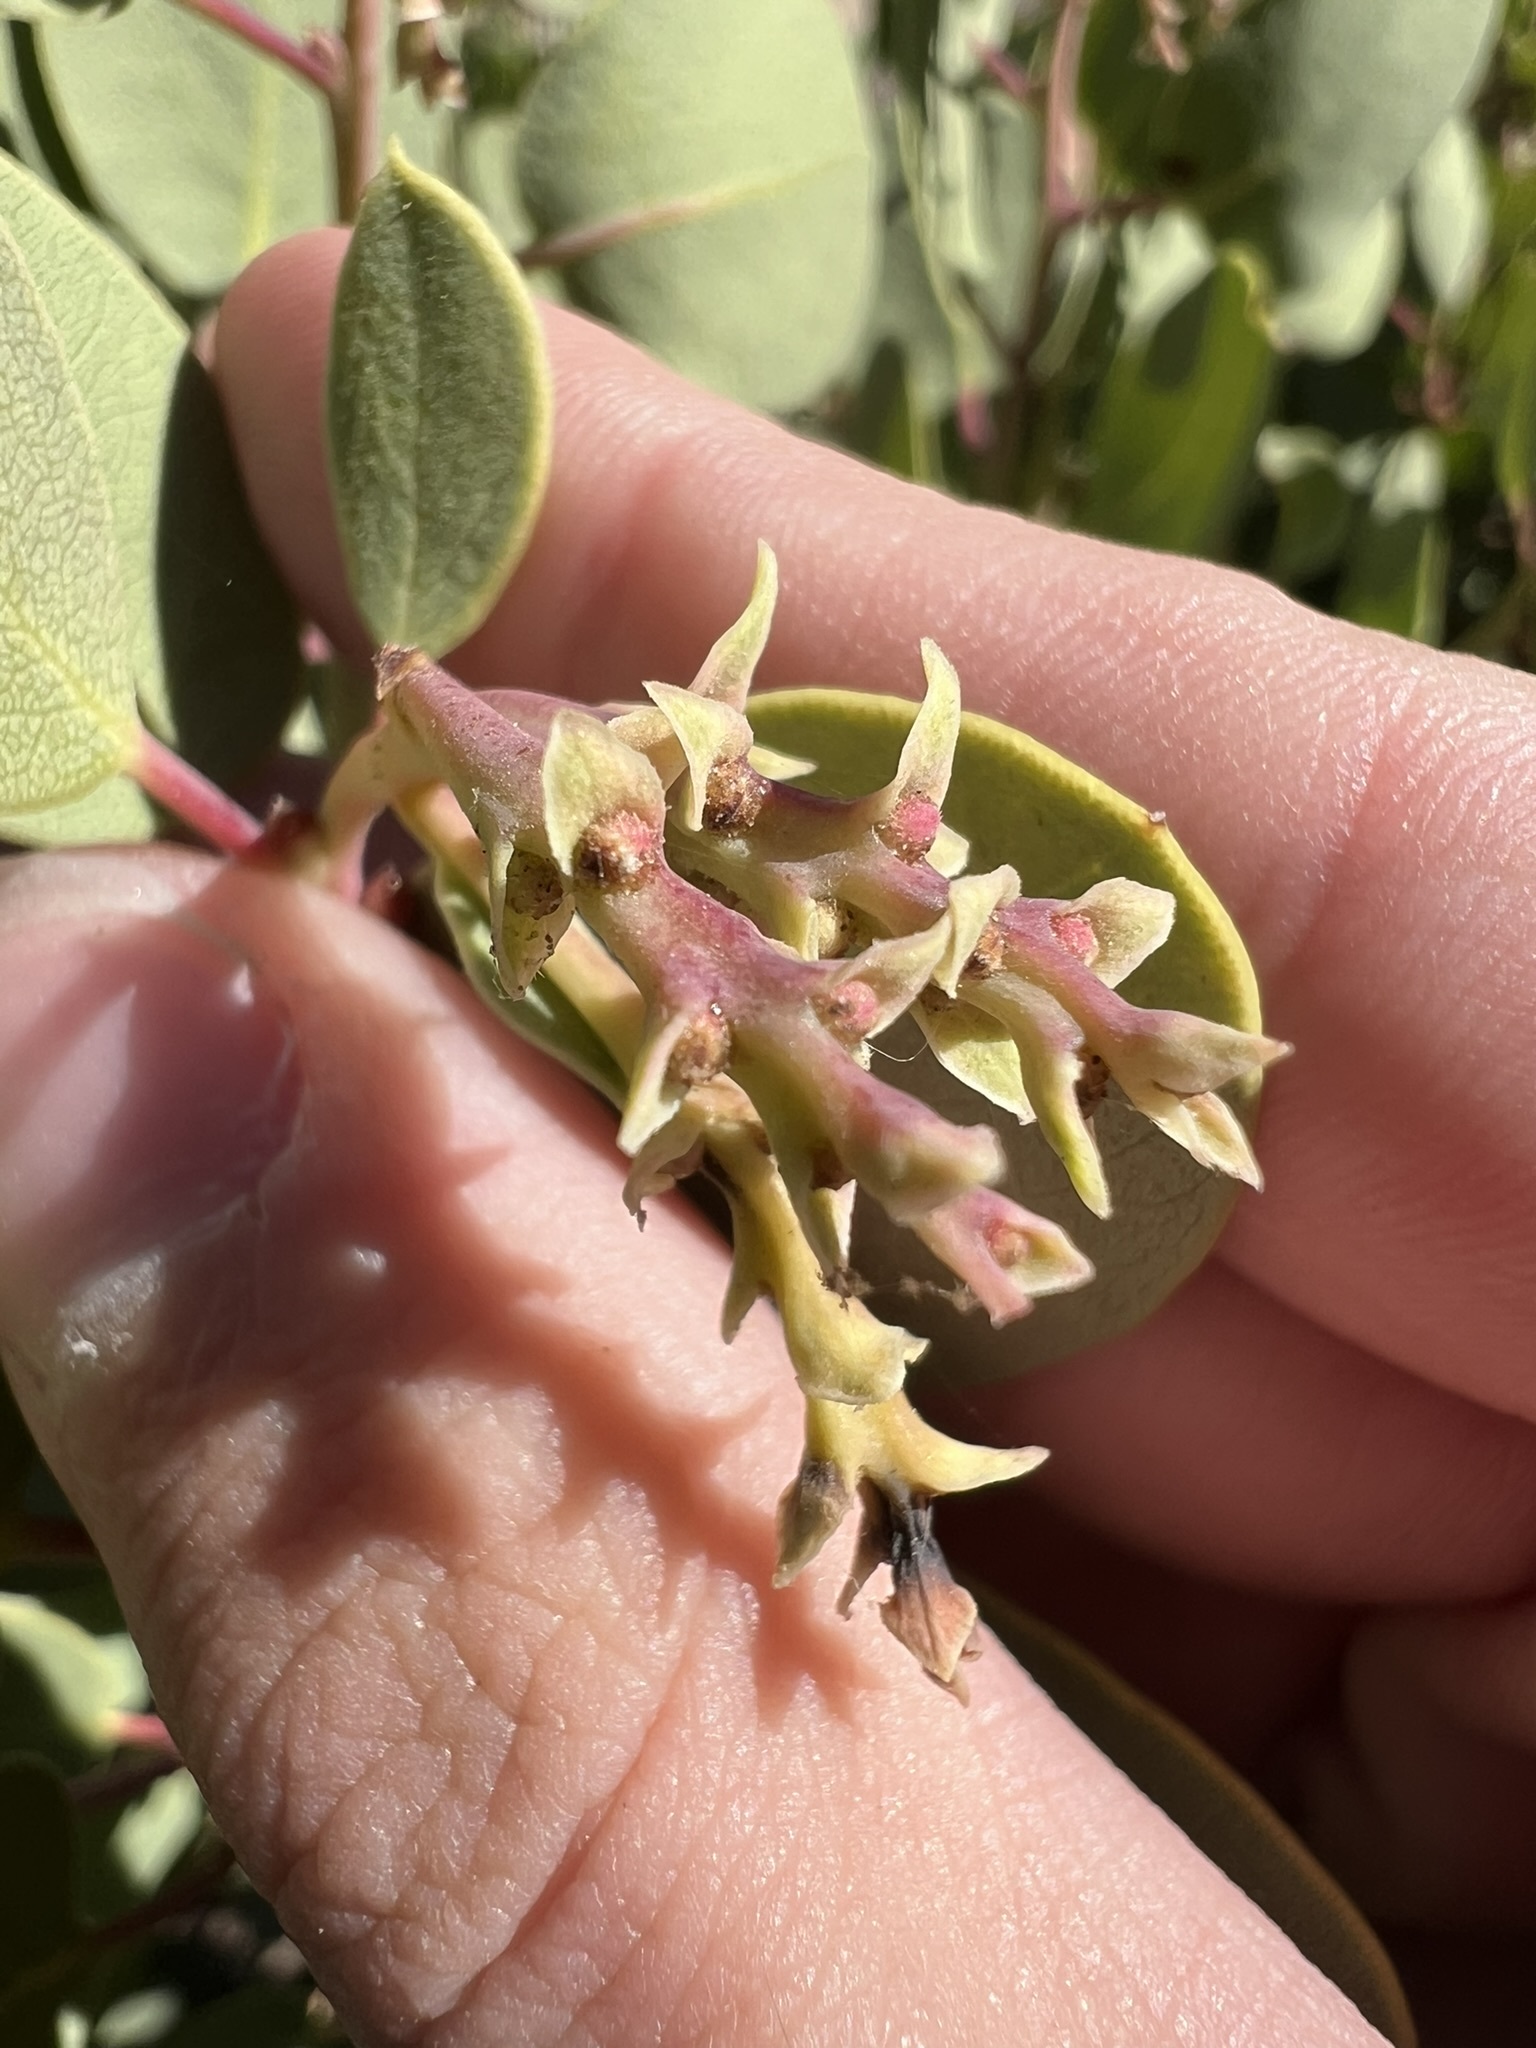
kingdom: Plantae
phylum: Tracheophyta
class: Magnoliopsida
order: Ericales
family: Ericaceae
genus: Arctostaphylos
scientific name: Arctostaphylos glauca
